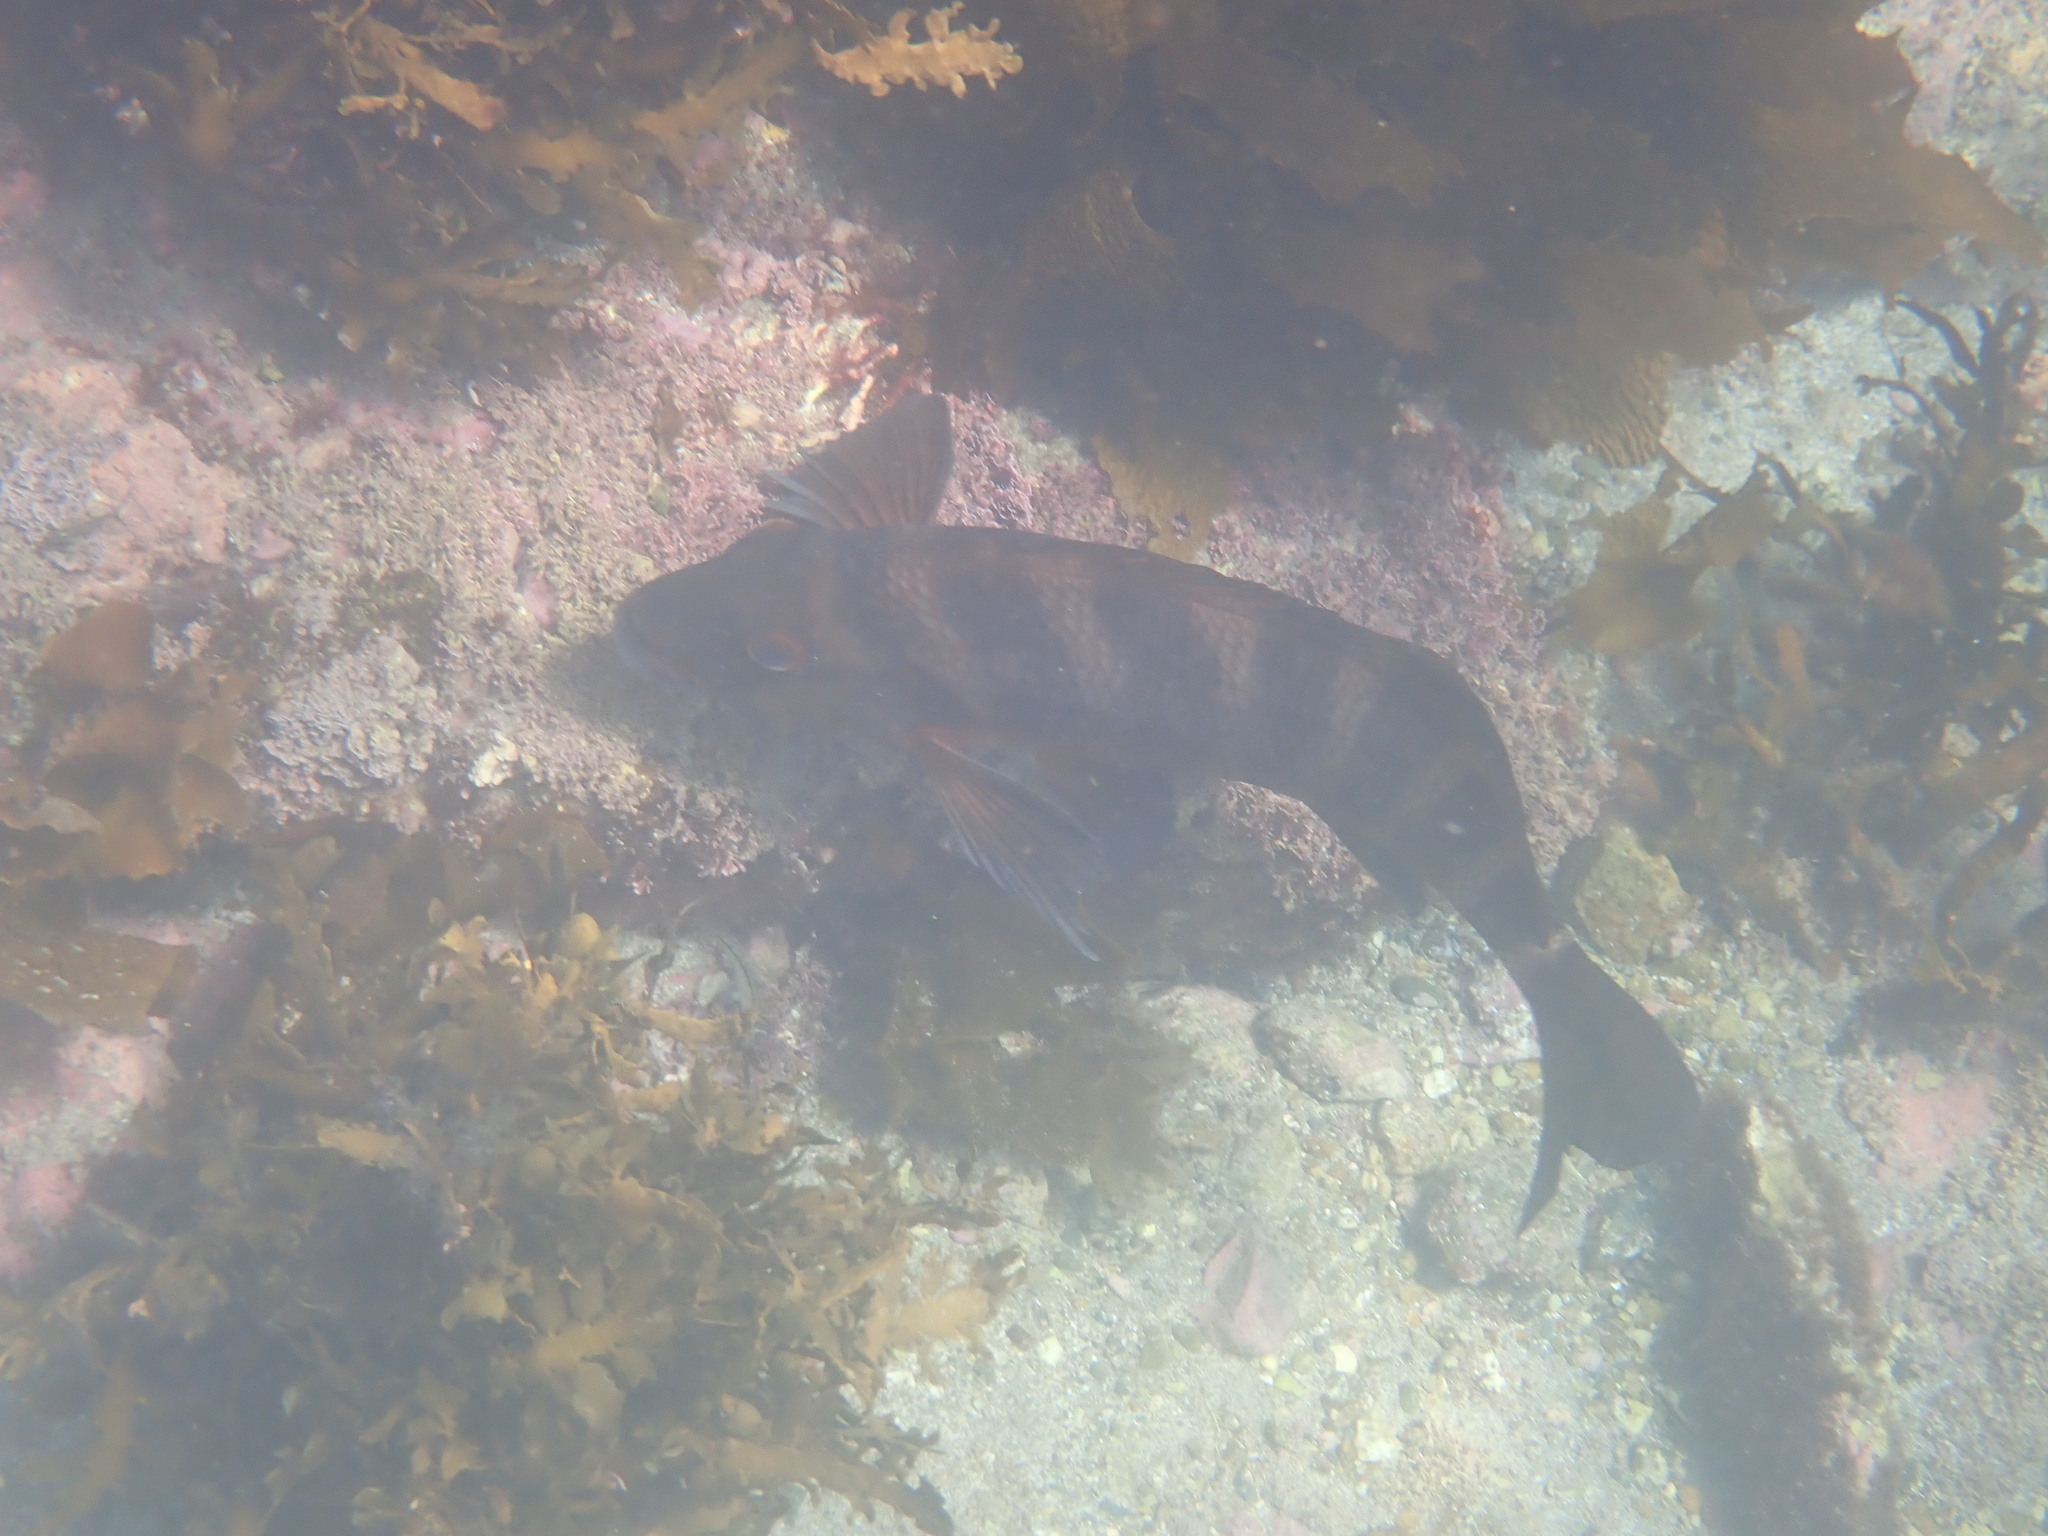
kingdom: Animalia
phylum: Chordata
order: Perciformes
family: Cheilodactylidae
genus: Cheilodactylus
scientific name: Cheilodactylus spectabilis
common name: Red moki
